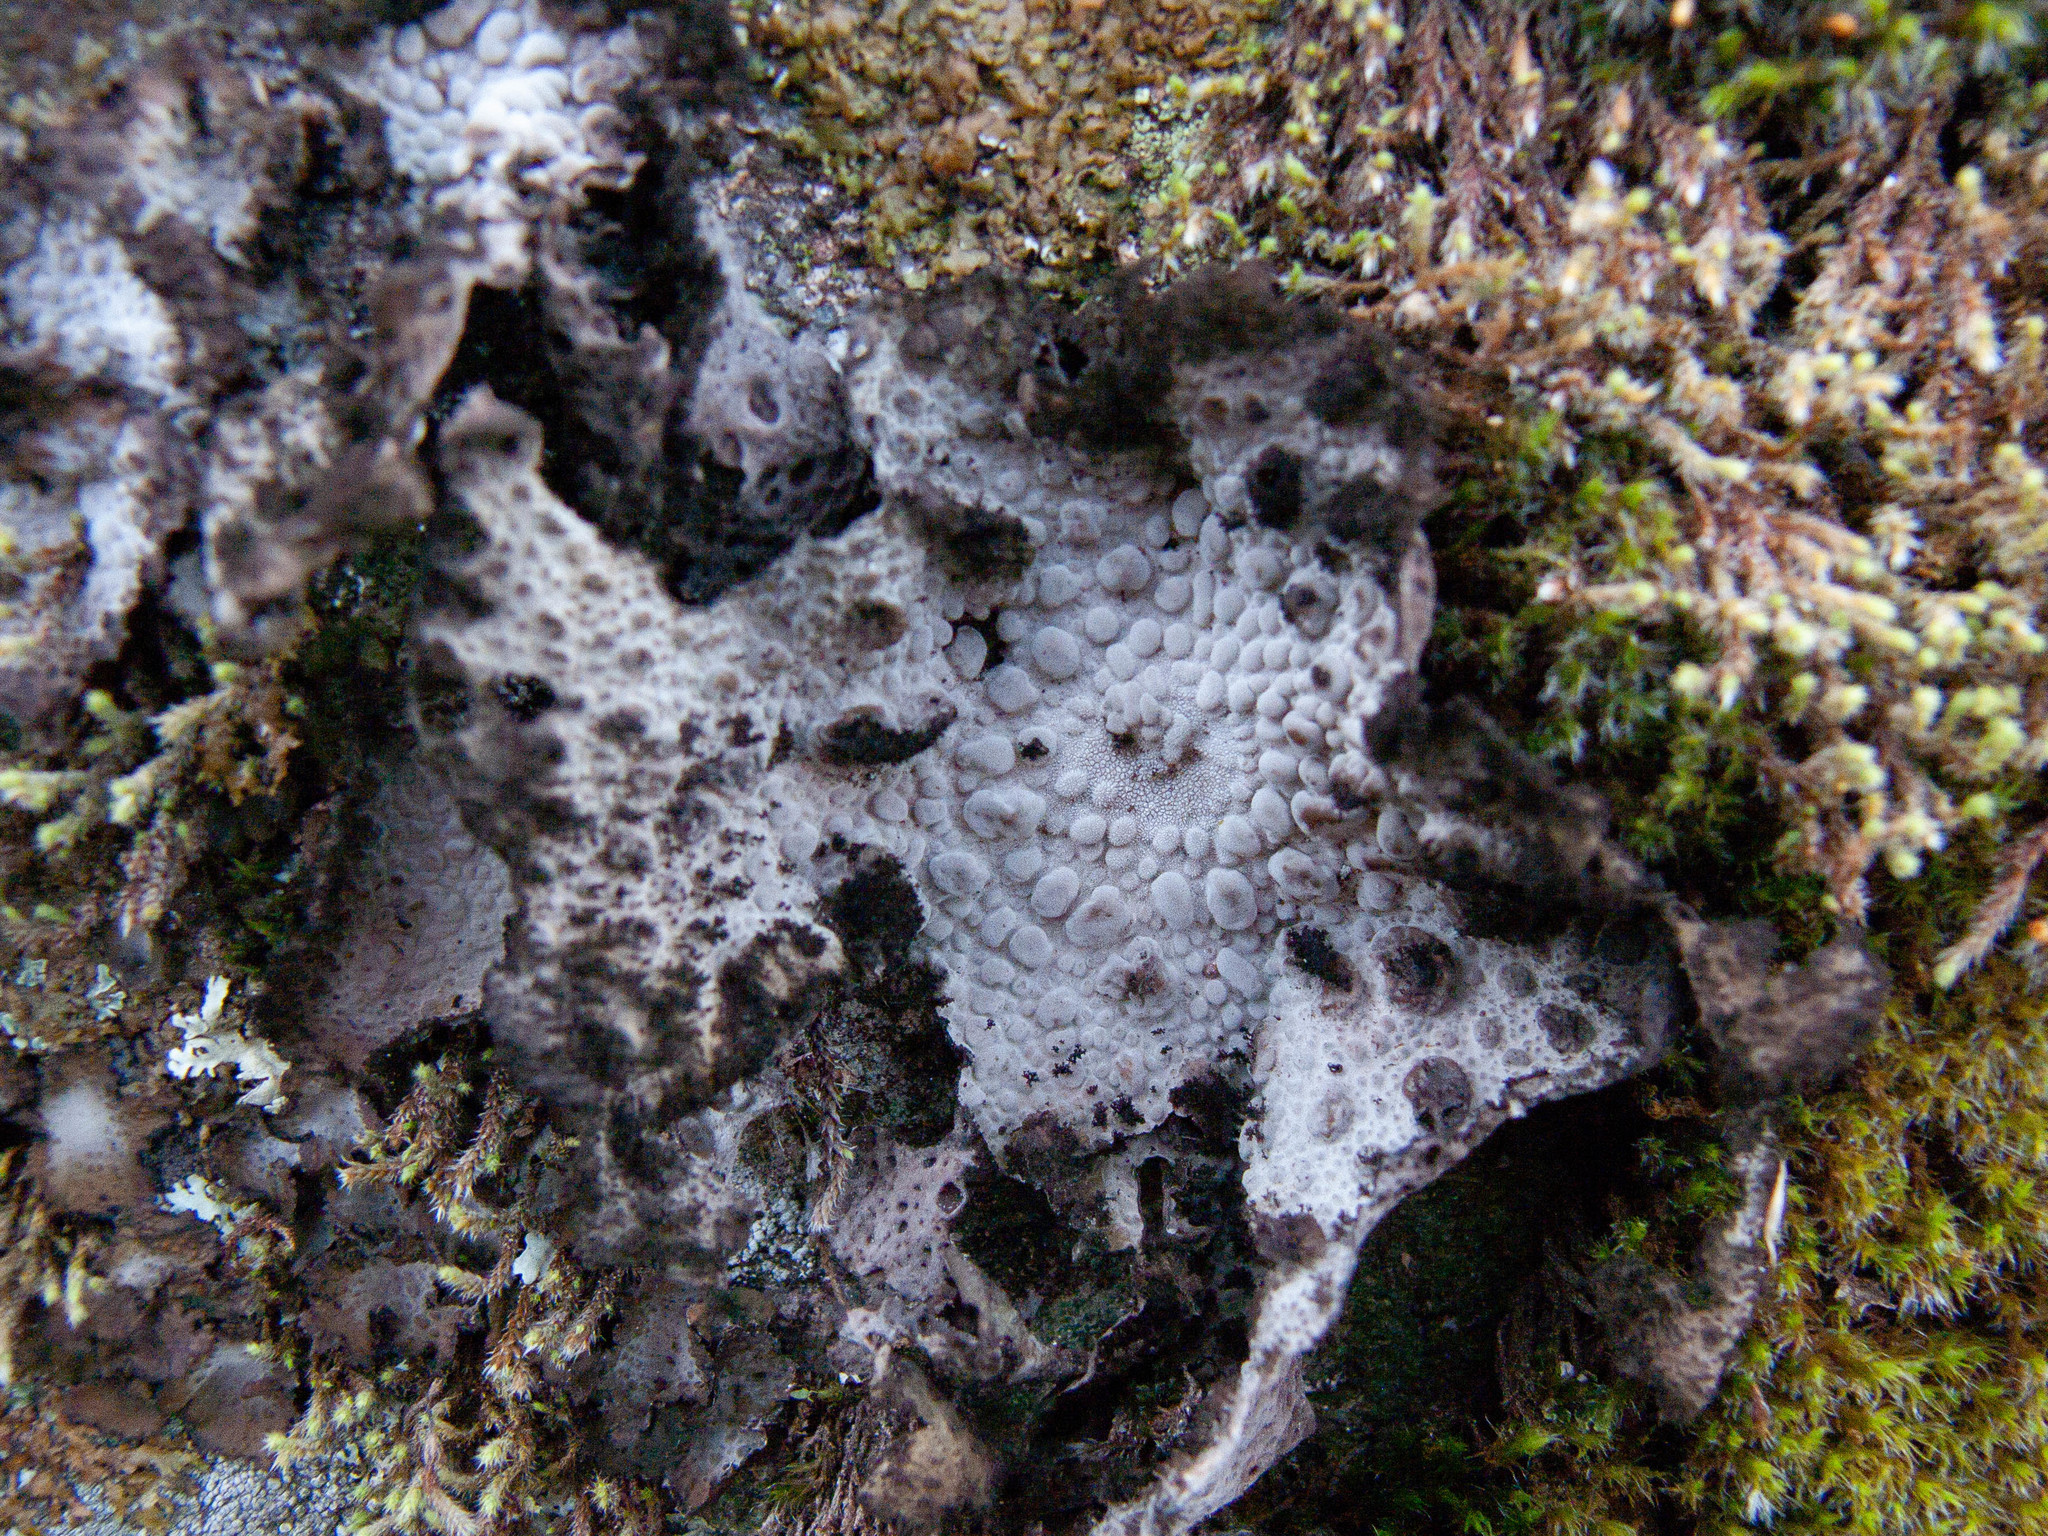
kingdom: Fungi
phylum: Ascomycota
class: Lecanoromycetes
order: Umbilicariales
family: Umbilicariaceae
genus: Lasallia
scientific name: Lasallia pustulata
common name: Blistered toadskin lichen
